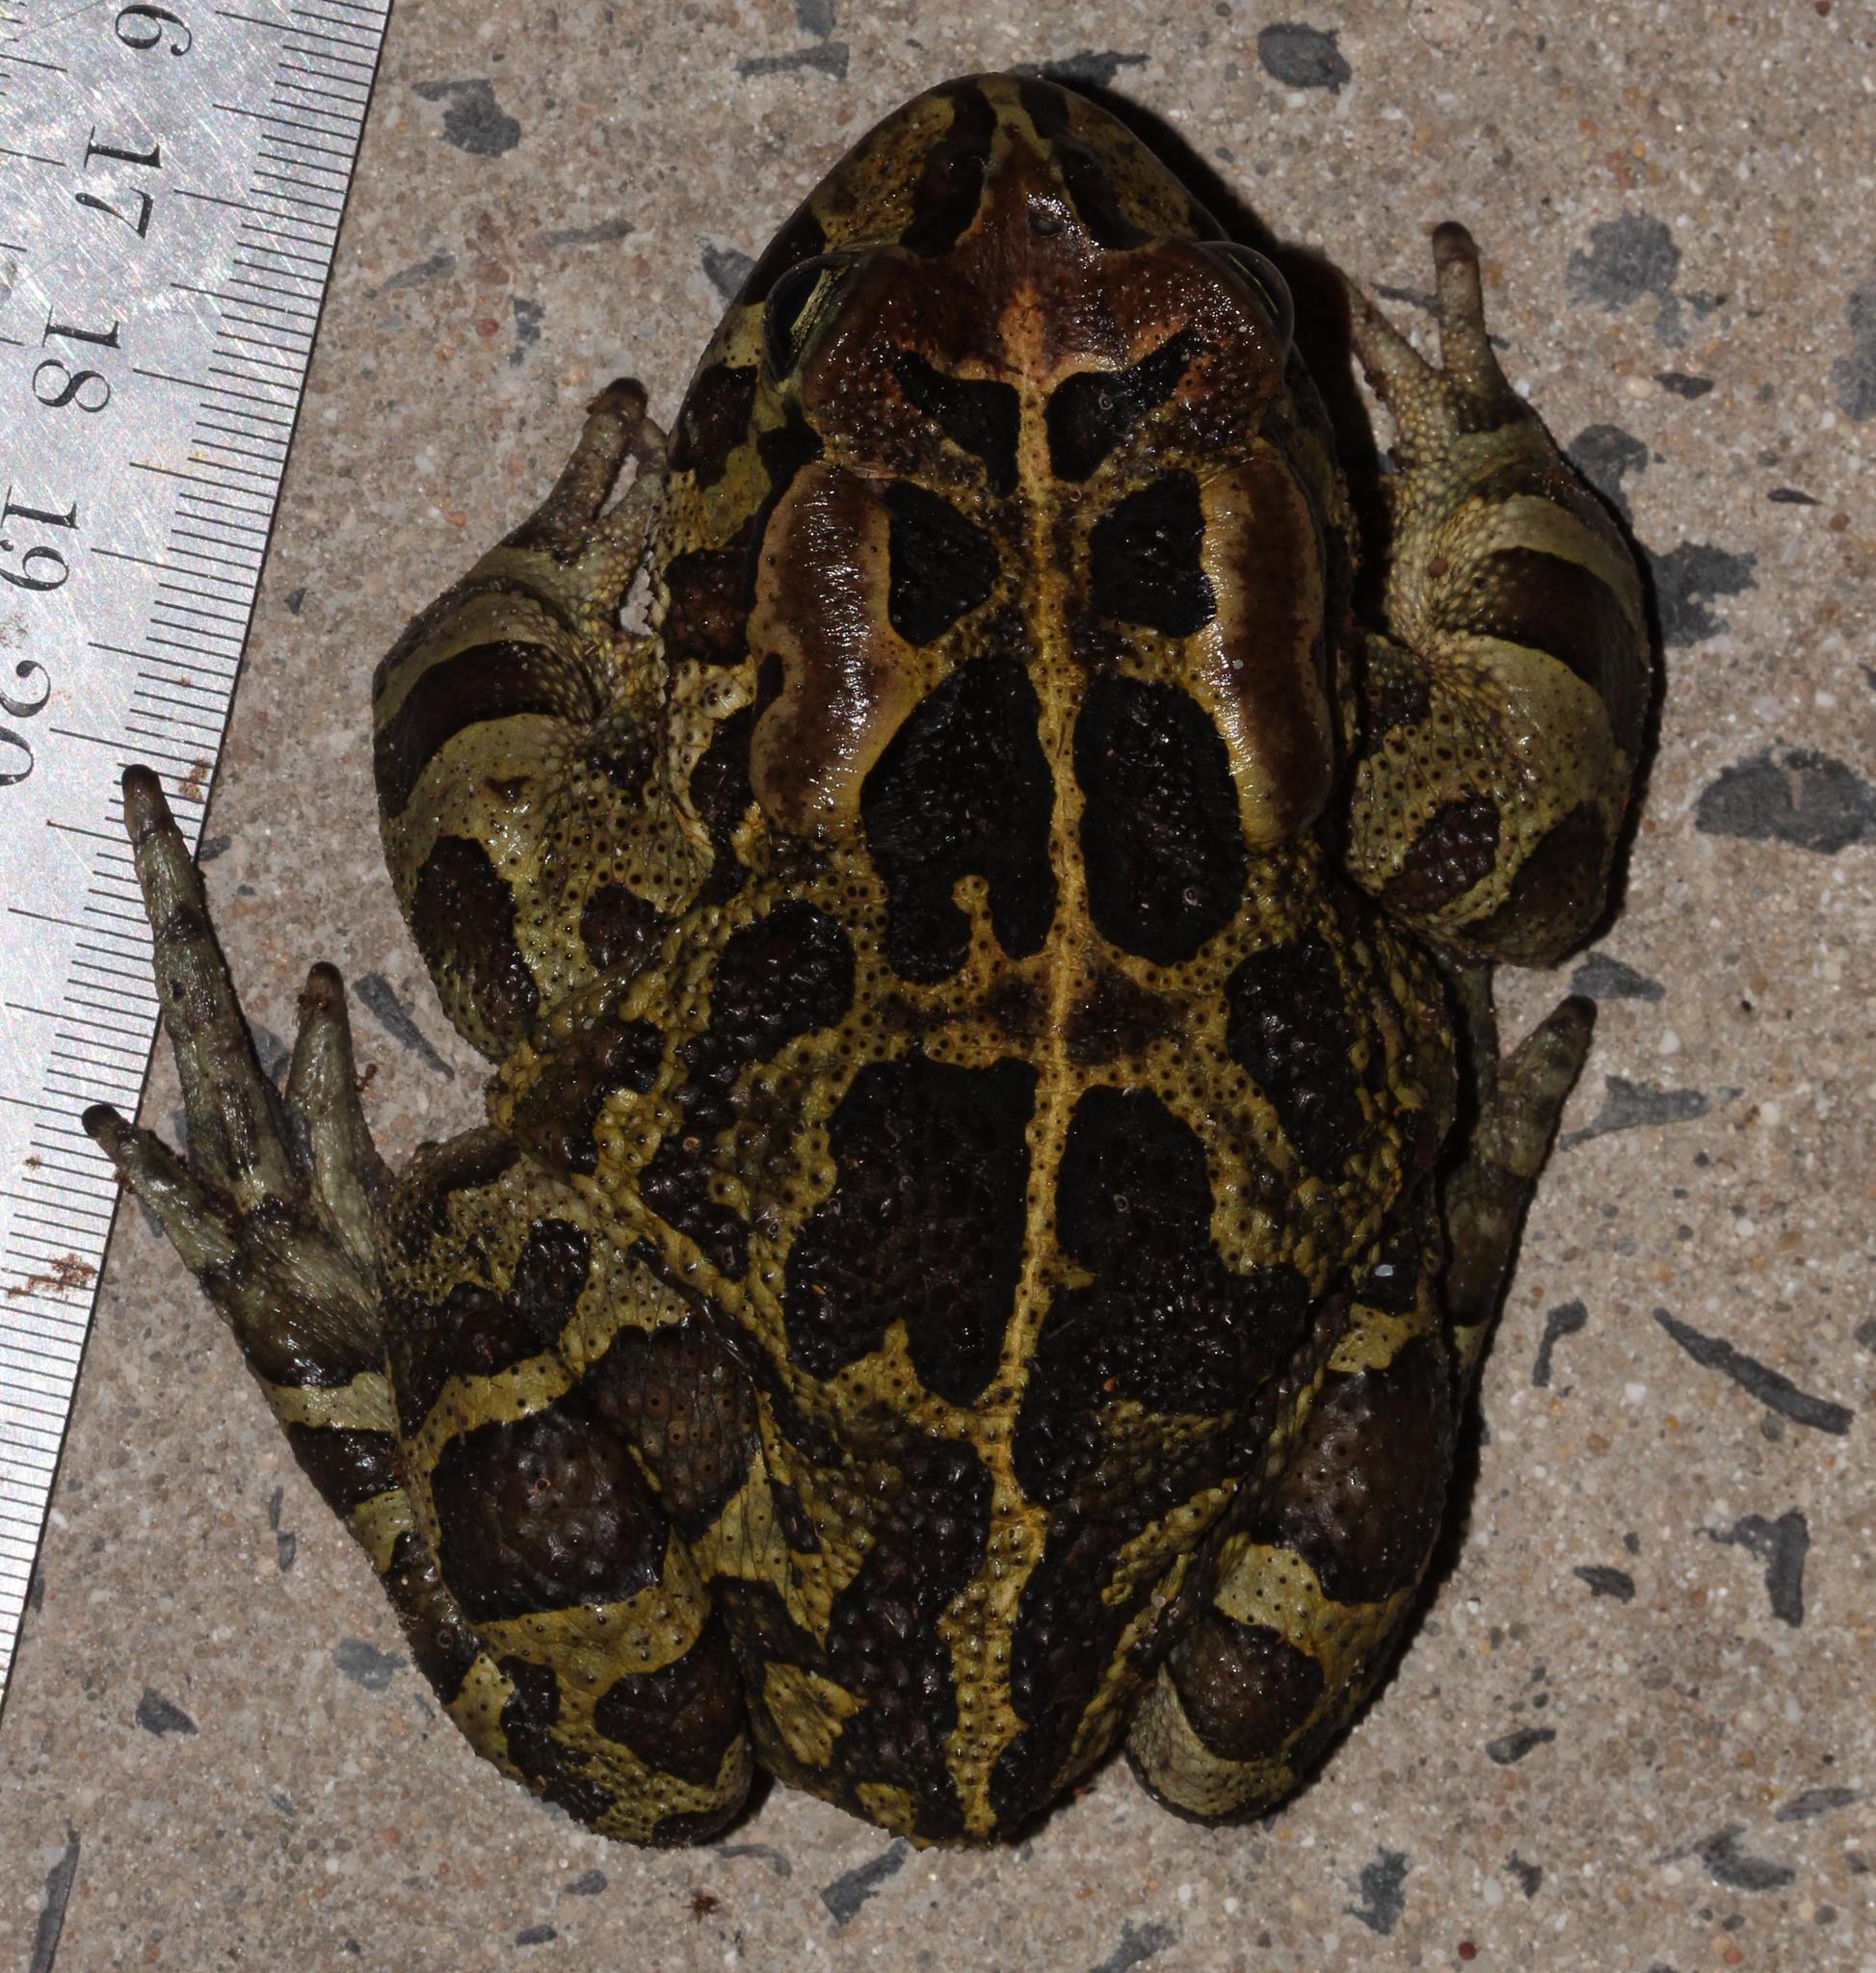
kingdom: Animalia
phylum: Chordata
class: Amphibia
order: Anura
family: Bufonidae
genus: Sclerophrys
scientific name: Sclerophrys pantherina
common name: Panther toad
